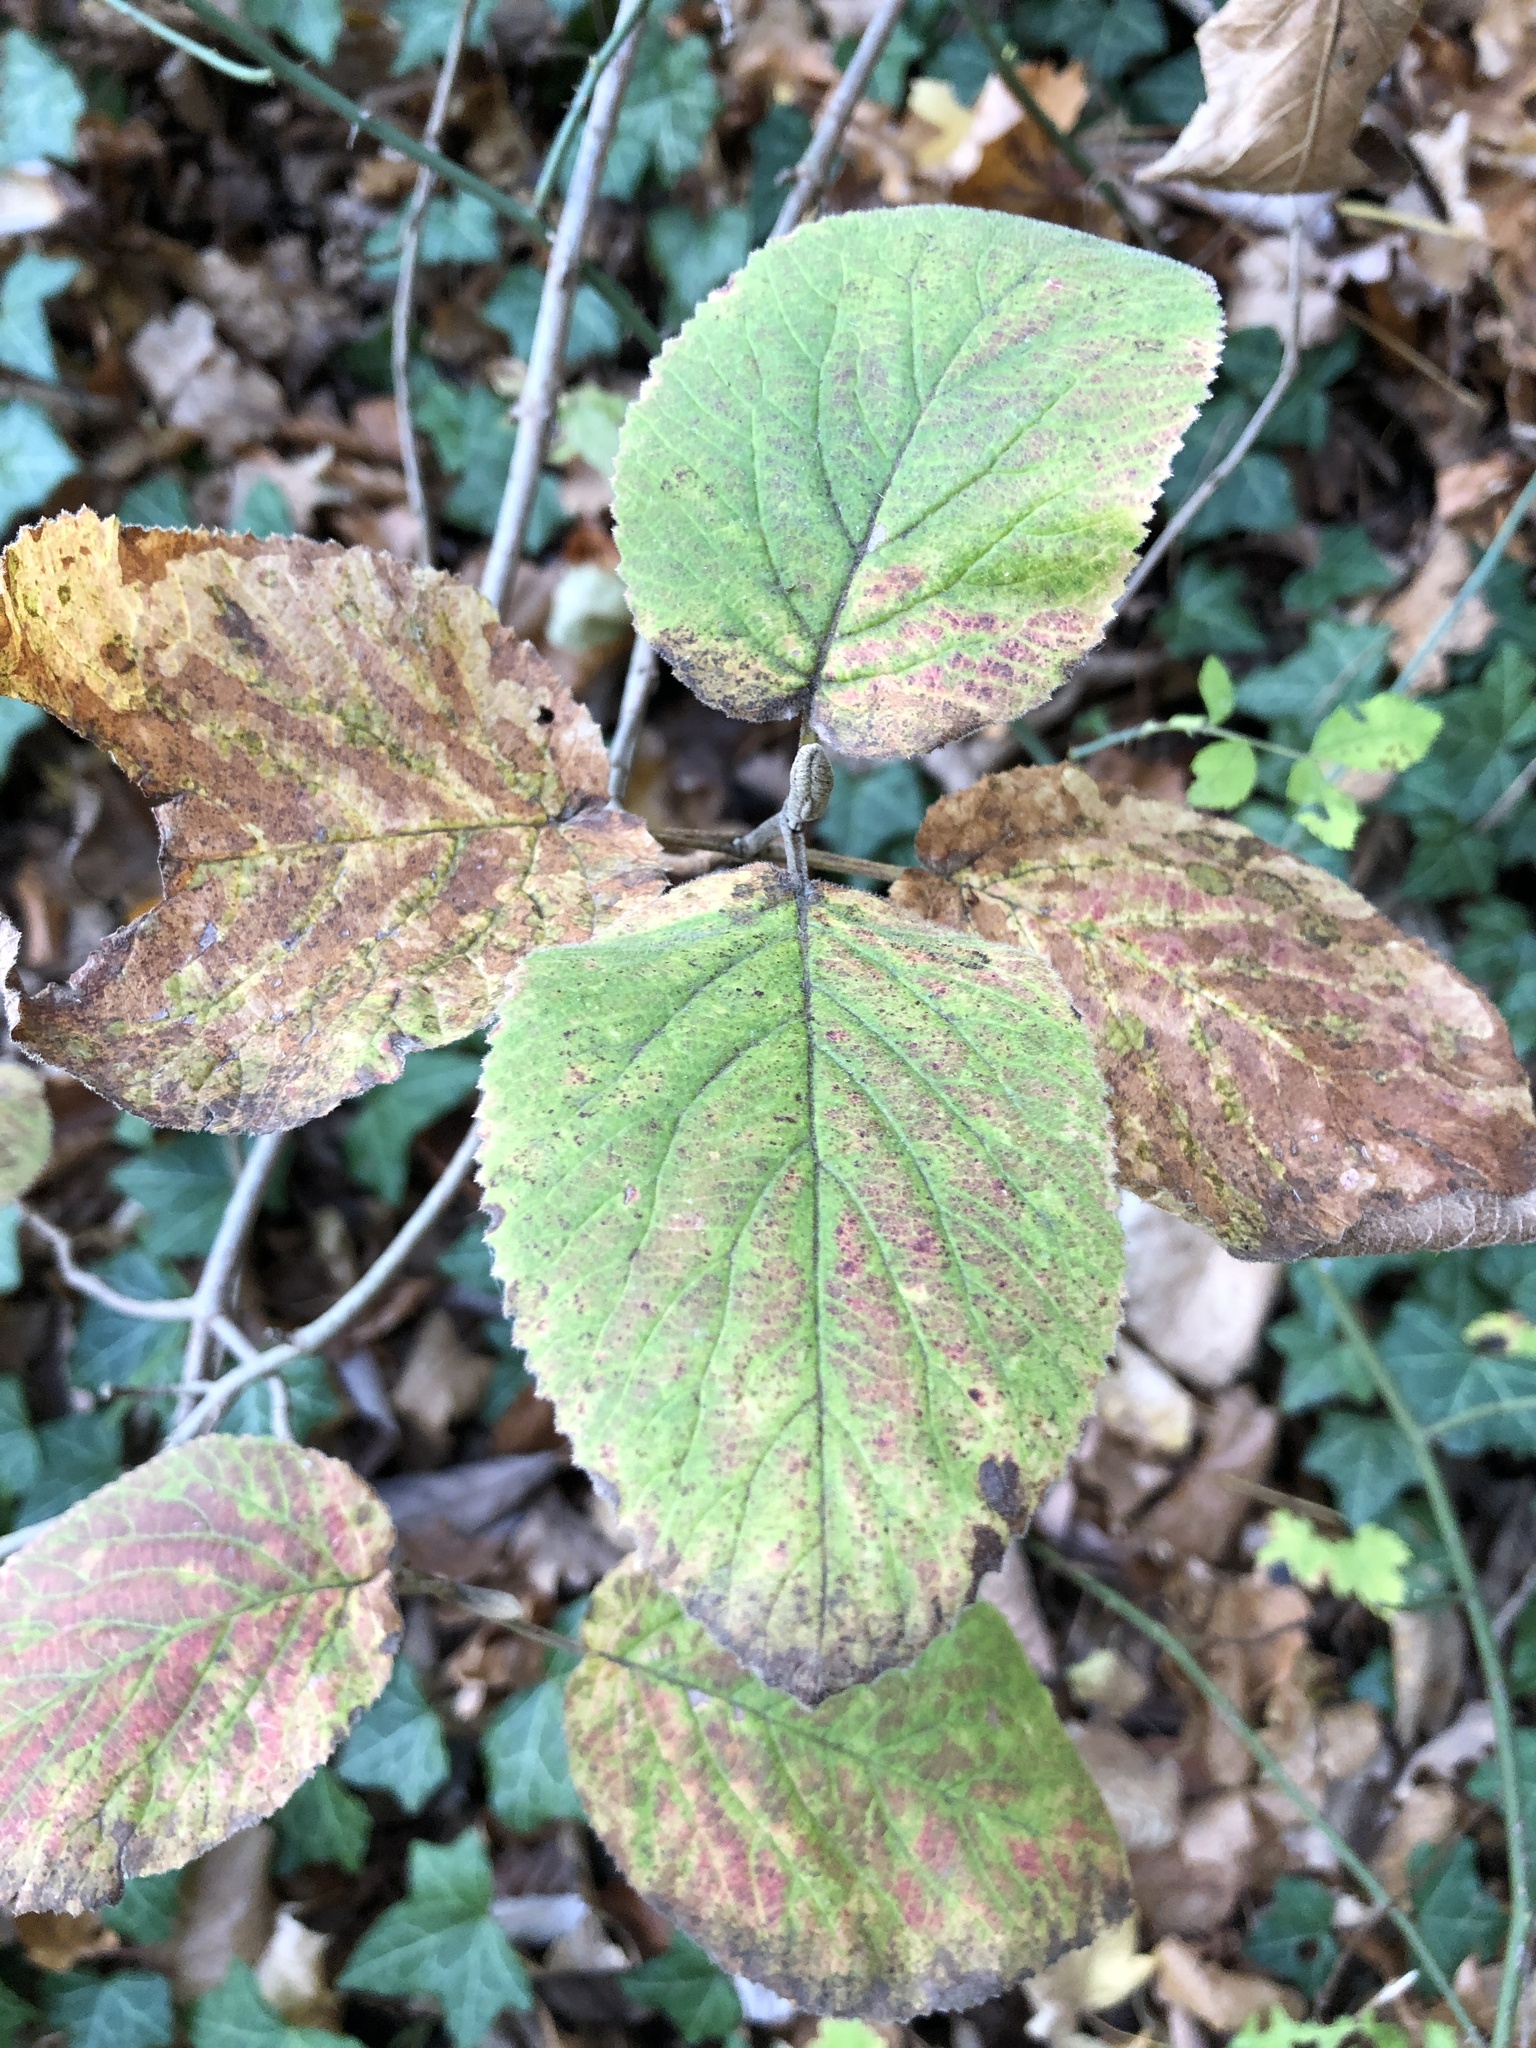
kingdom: Plantae
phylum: Tracheophyta
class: Magnoliopsida
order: Dipsacales
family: Viburnaceae
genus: Viburnum
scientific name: Viburnum lantana
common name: Wayfaring tree
